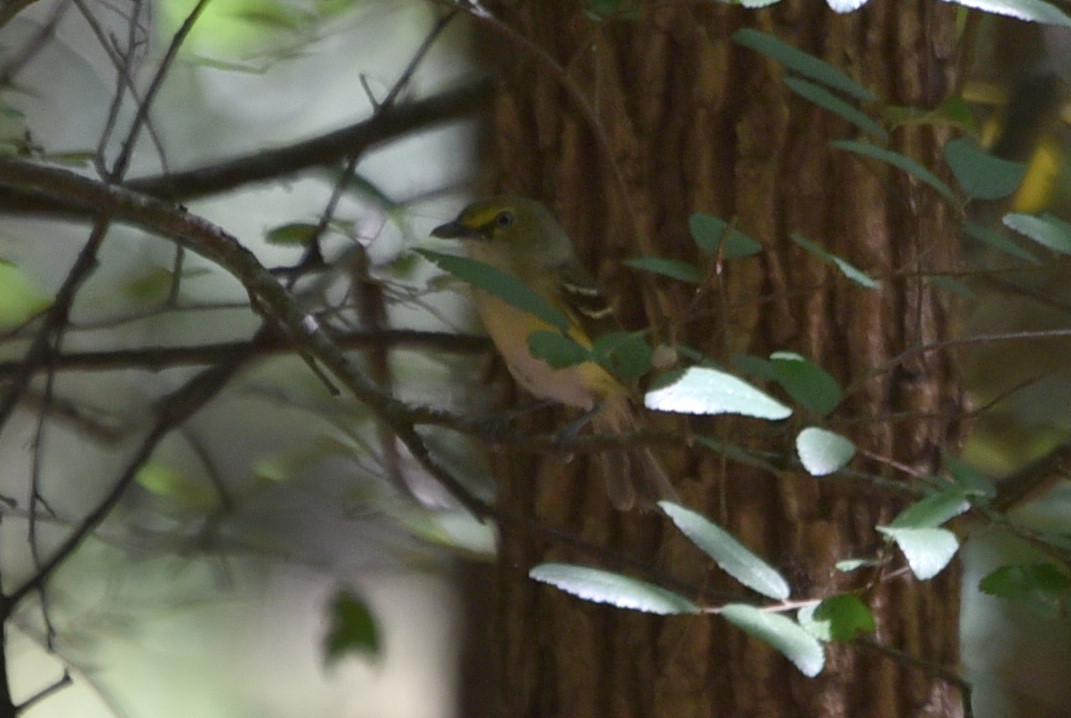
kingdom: Animalia
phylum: Chordata
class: Aves
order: Passeriformes
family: Vireonidae
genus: Vireo
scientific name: Vireo griseus
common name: White-eyed vireo
